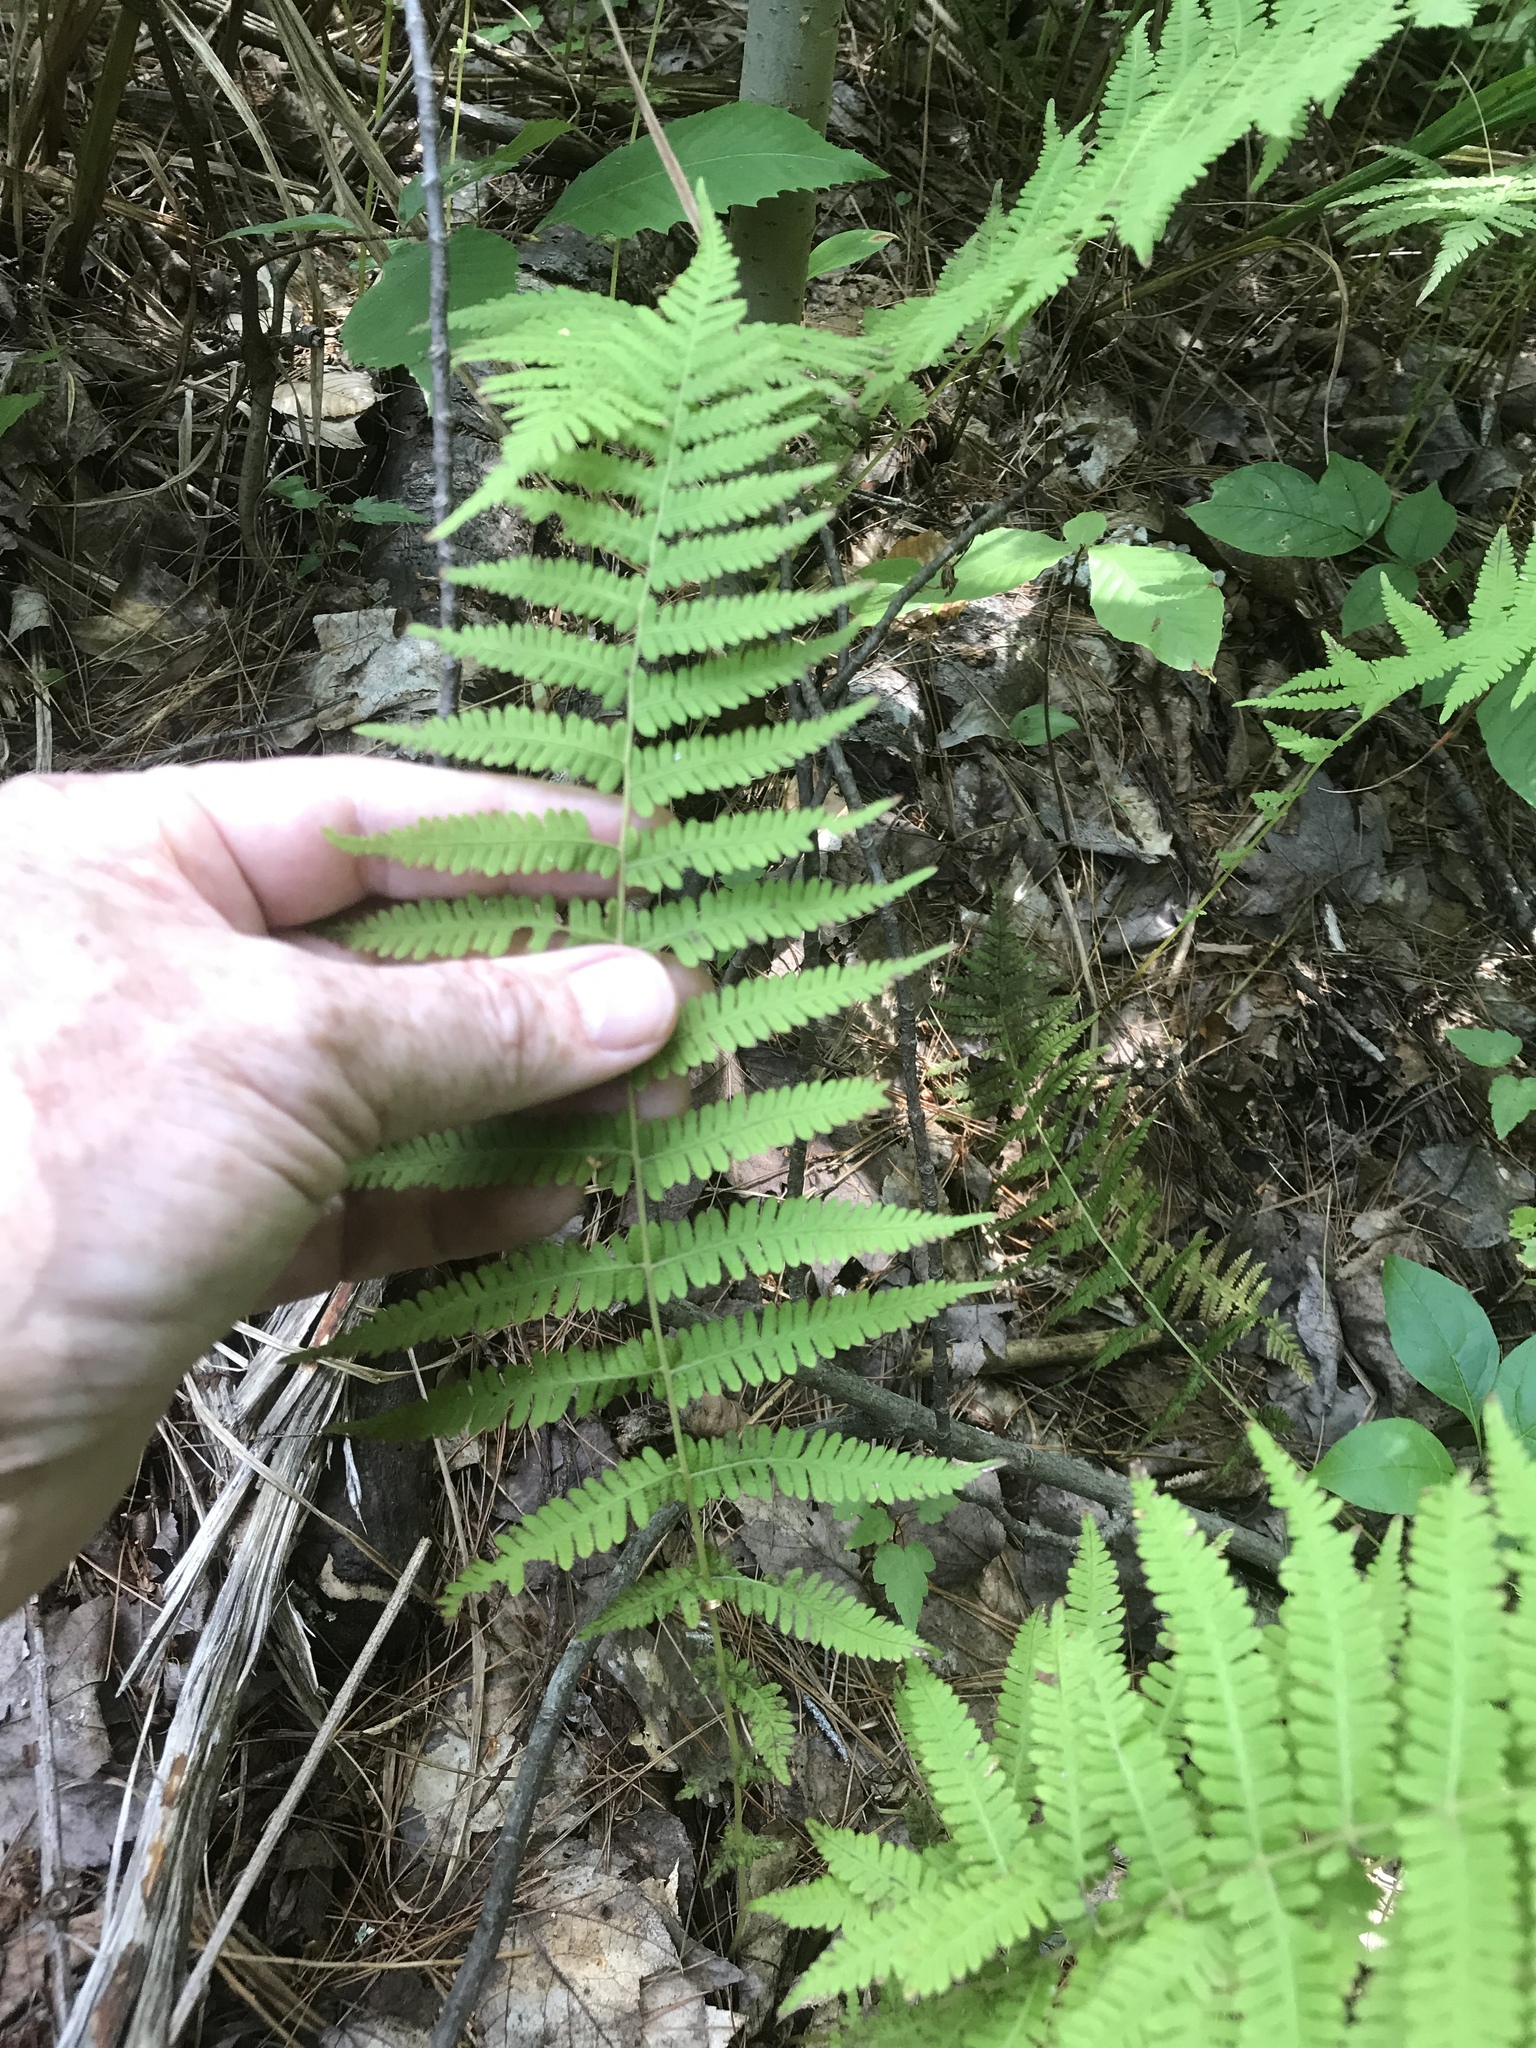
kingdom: Plantae
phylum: Tracheophyta
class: Polypodiopsida
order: Polypodiales
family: Thelypteridaceae
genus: Amauropelta
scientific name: Amauropelta noveboracensis
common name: New york fern
